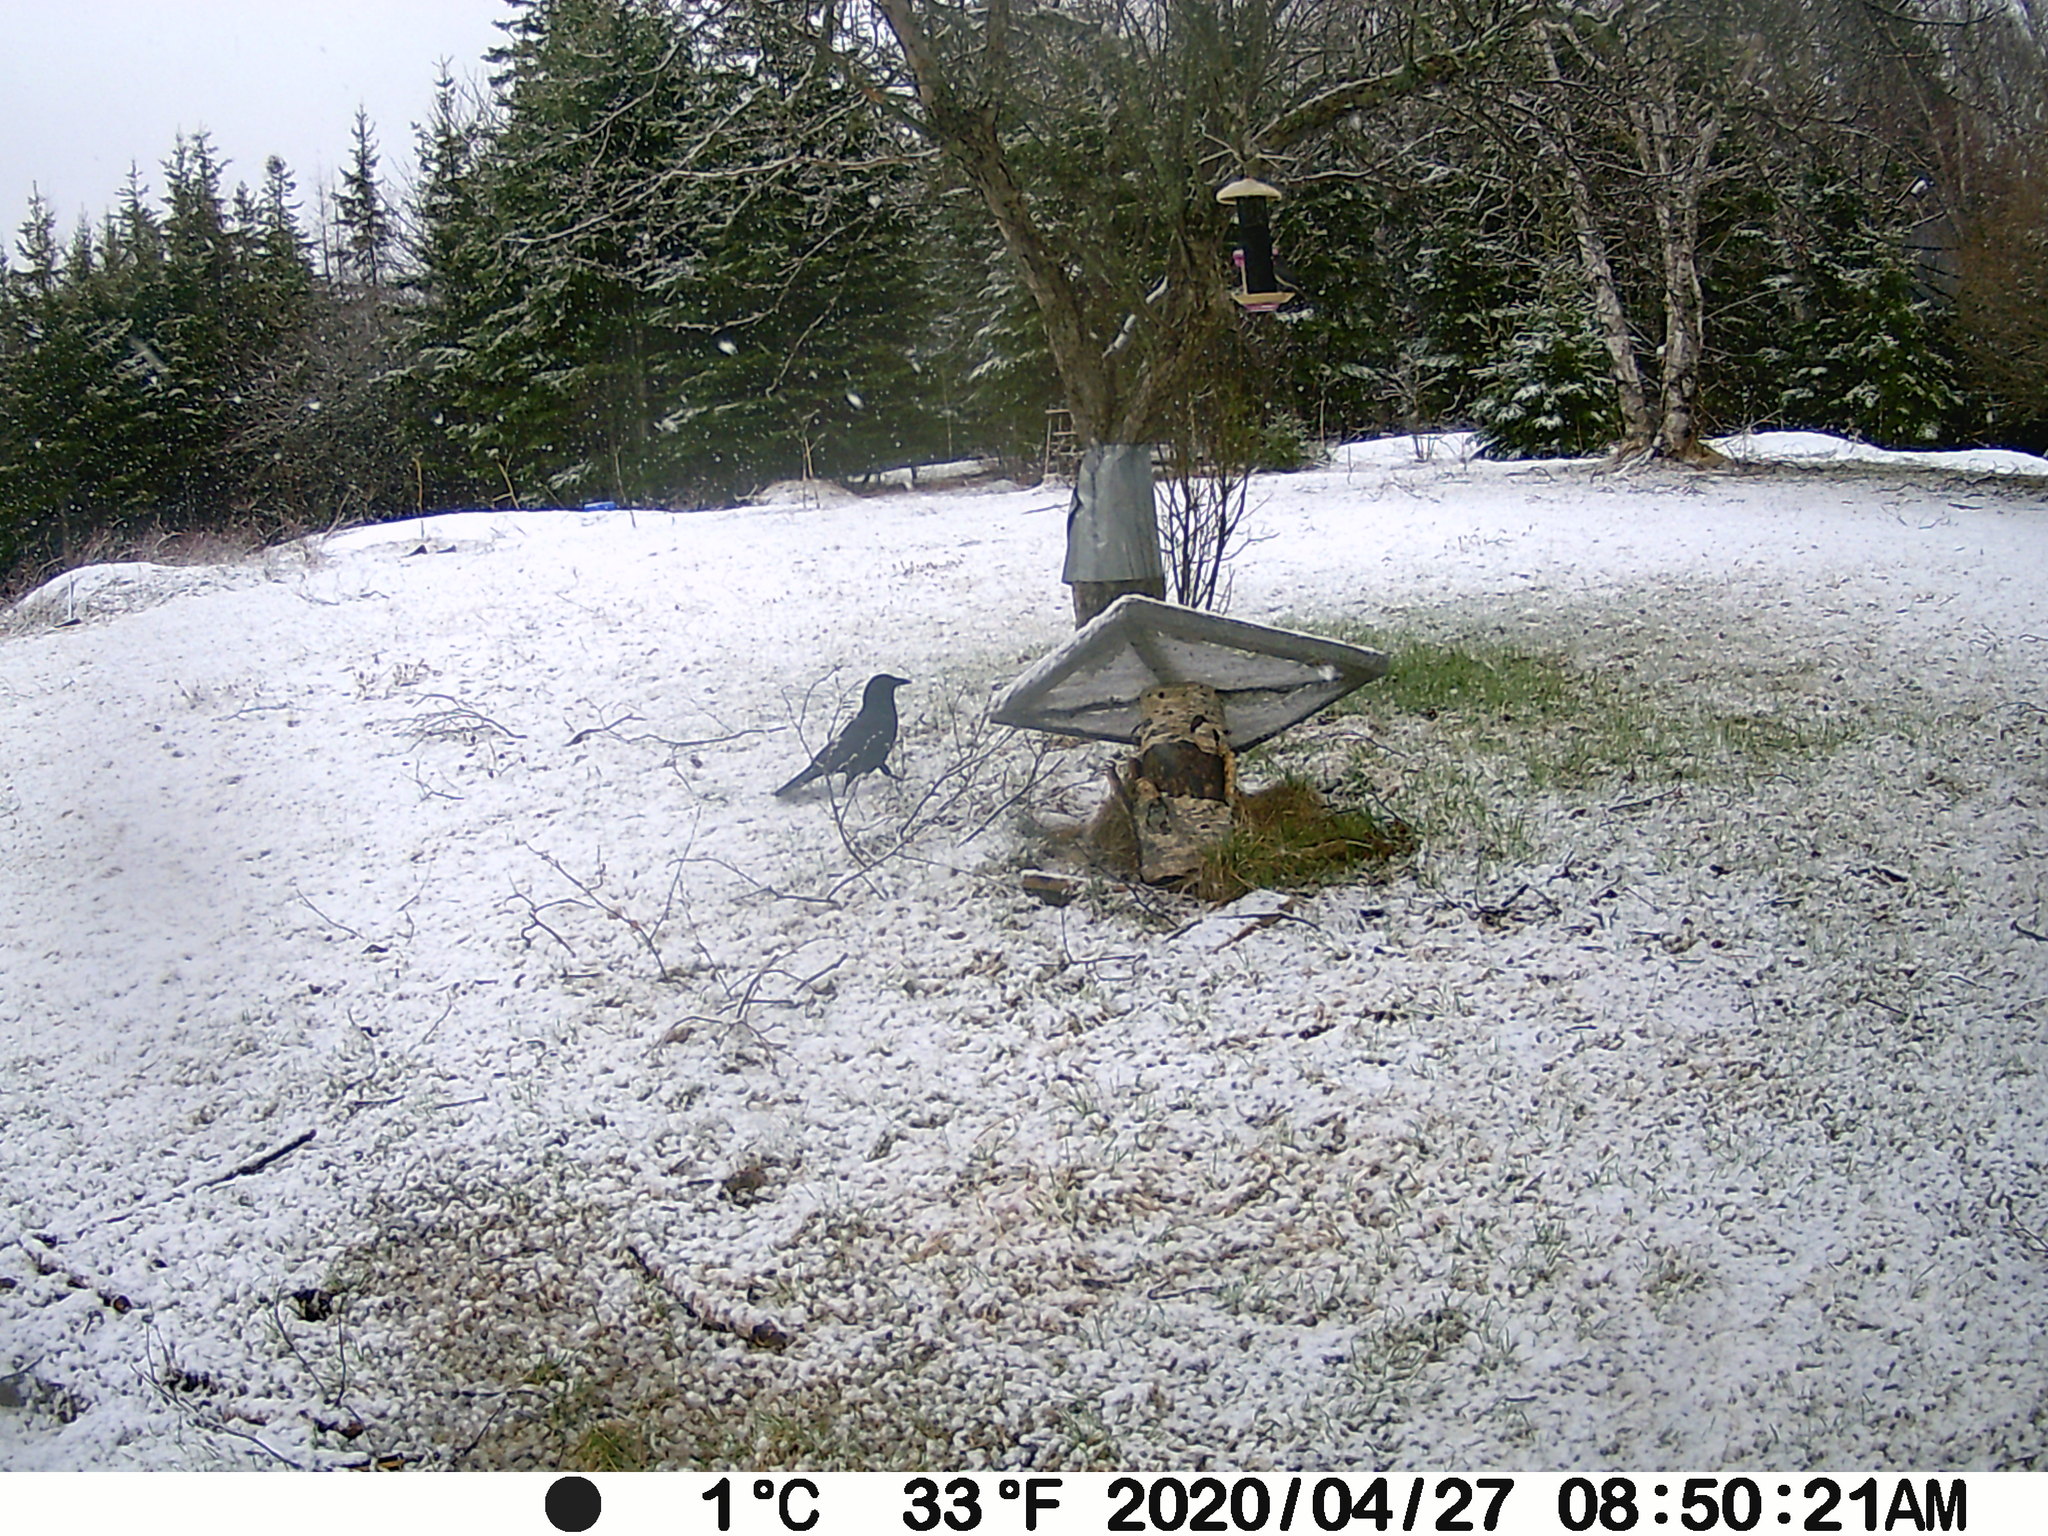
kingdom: Animalia
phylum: Chordata
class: Aves
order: Passeriformes
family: Corvidae
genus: Corvus
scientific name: Corvus brachyrhynchos
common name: American crow
